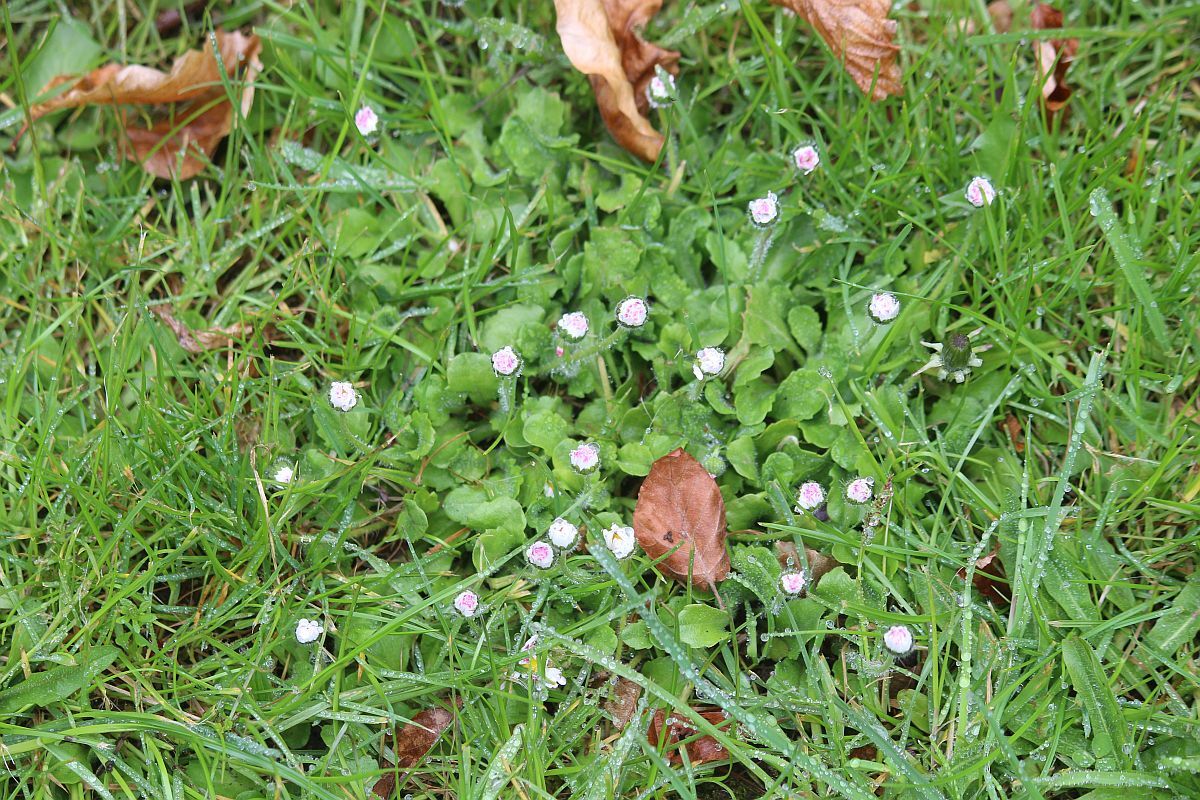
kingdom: Plantae
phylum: Tracheophyta
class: Magnoliopsida
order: Asterales
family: Asteraceae
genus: Bellis
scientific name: Bellis perennis
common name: Lawndaisy
